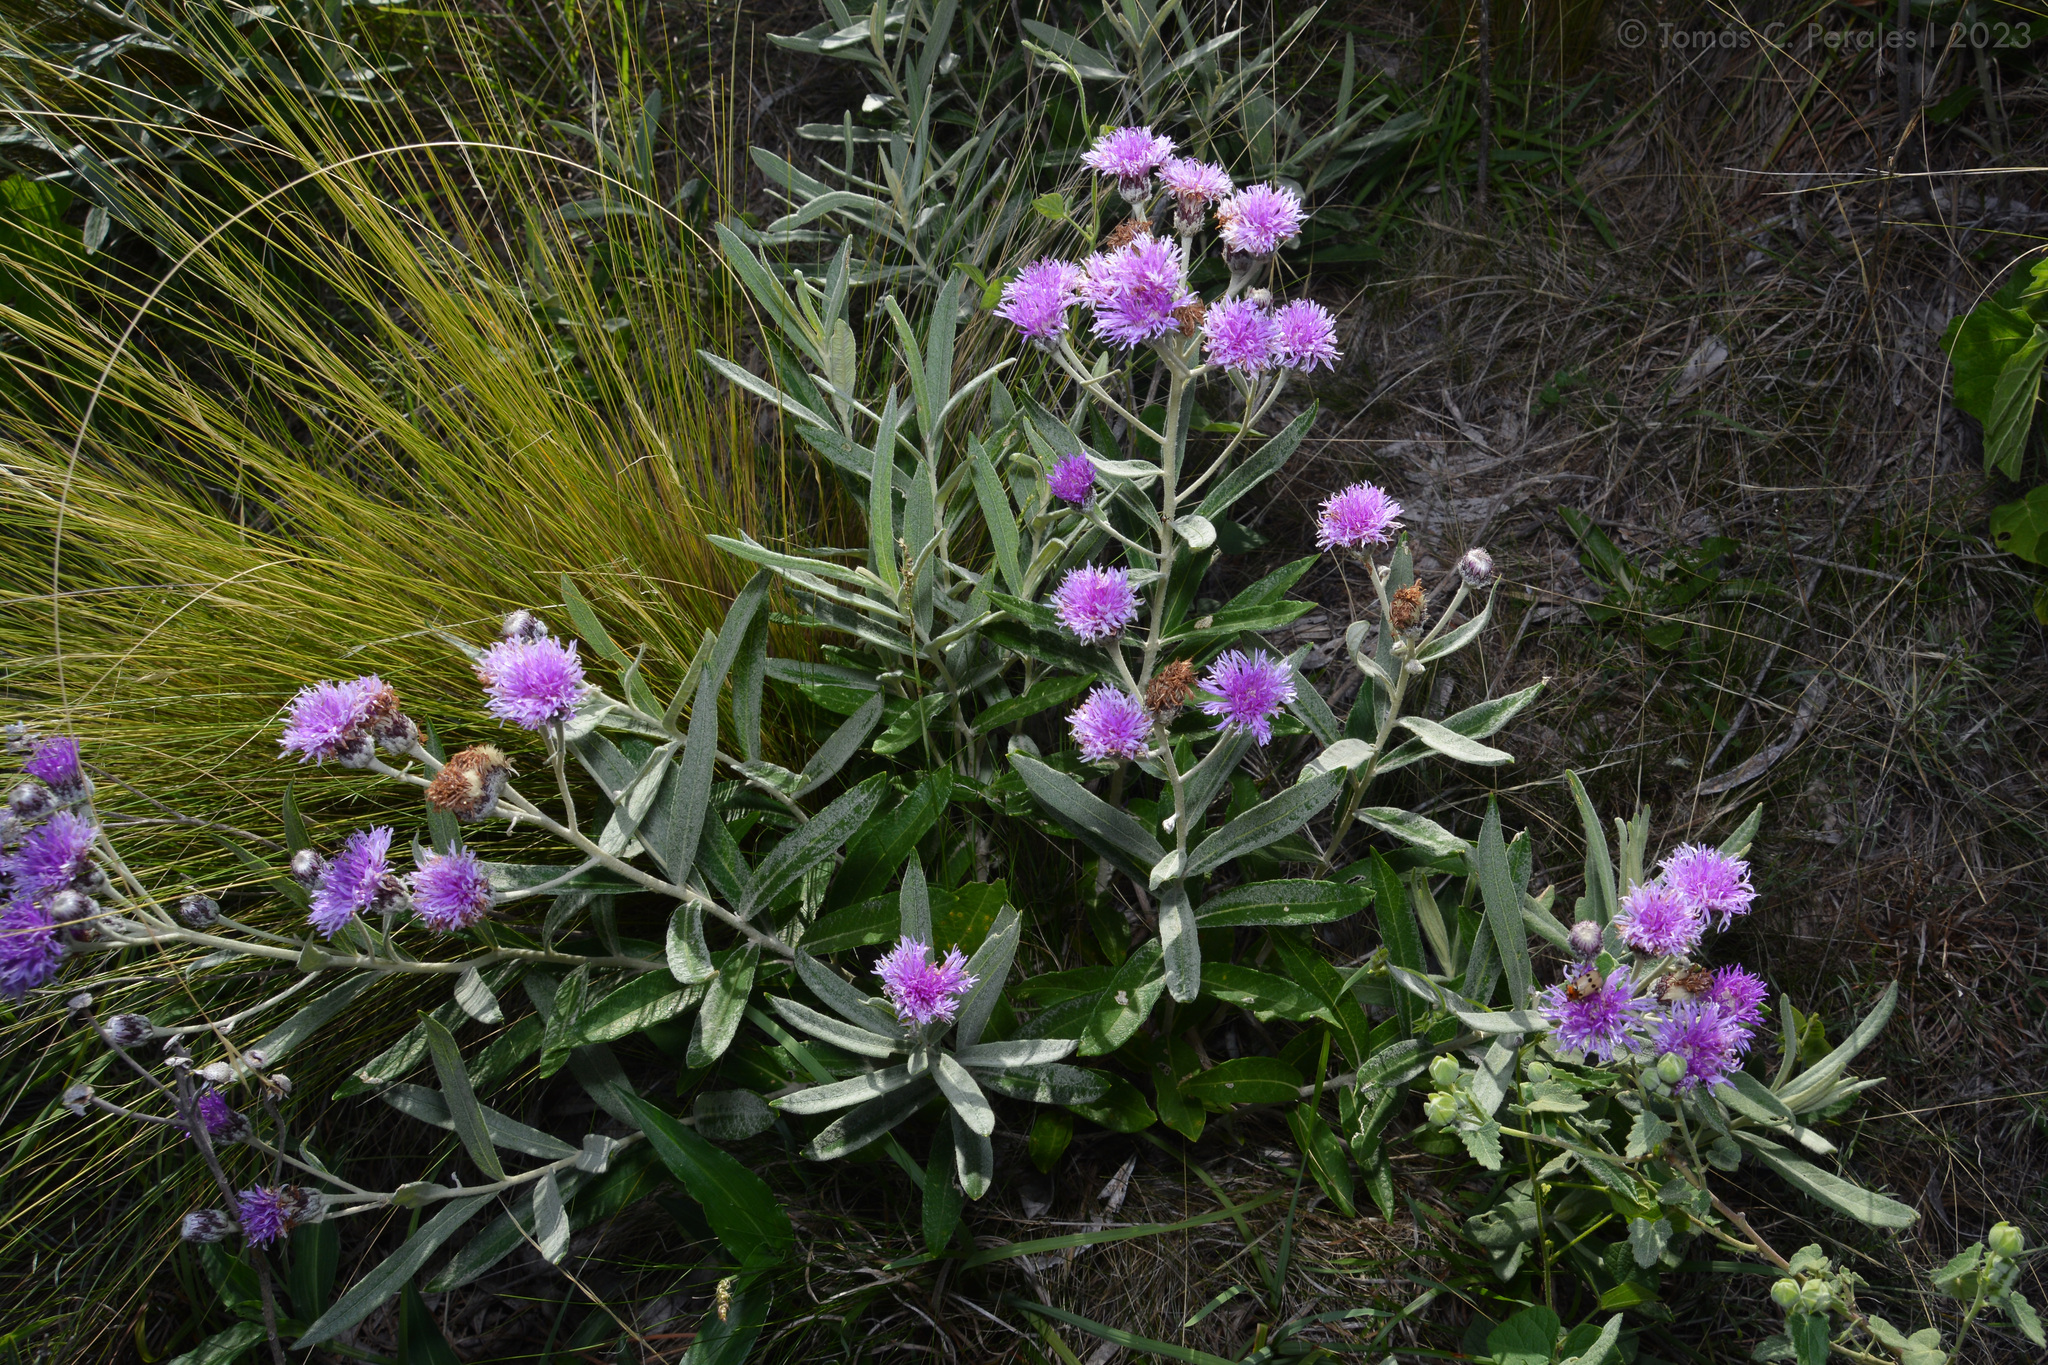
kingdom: Plantae
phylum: Tracheophyta
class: Magnoliopsida
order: Asterales
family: Asteraceae
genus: Lessingianthus
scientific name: Lessingianthus mollissimus
